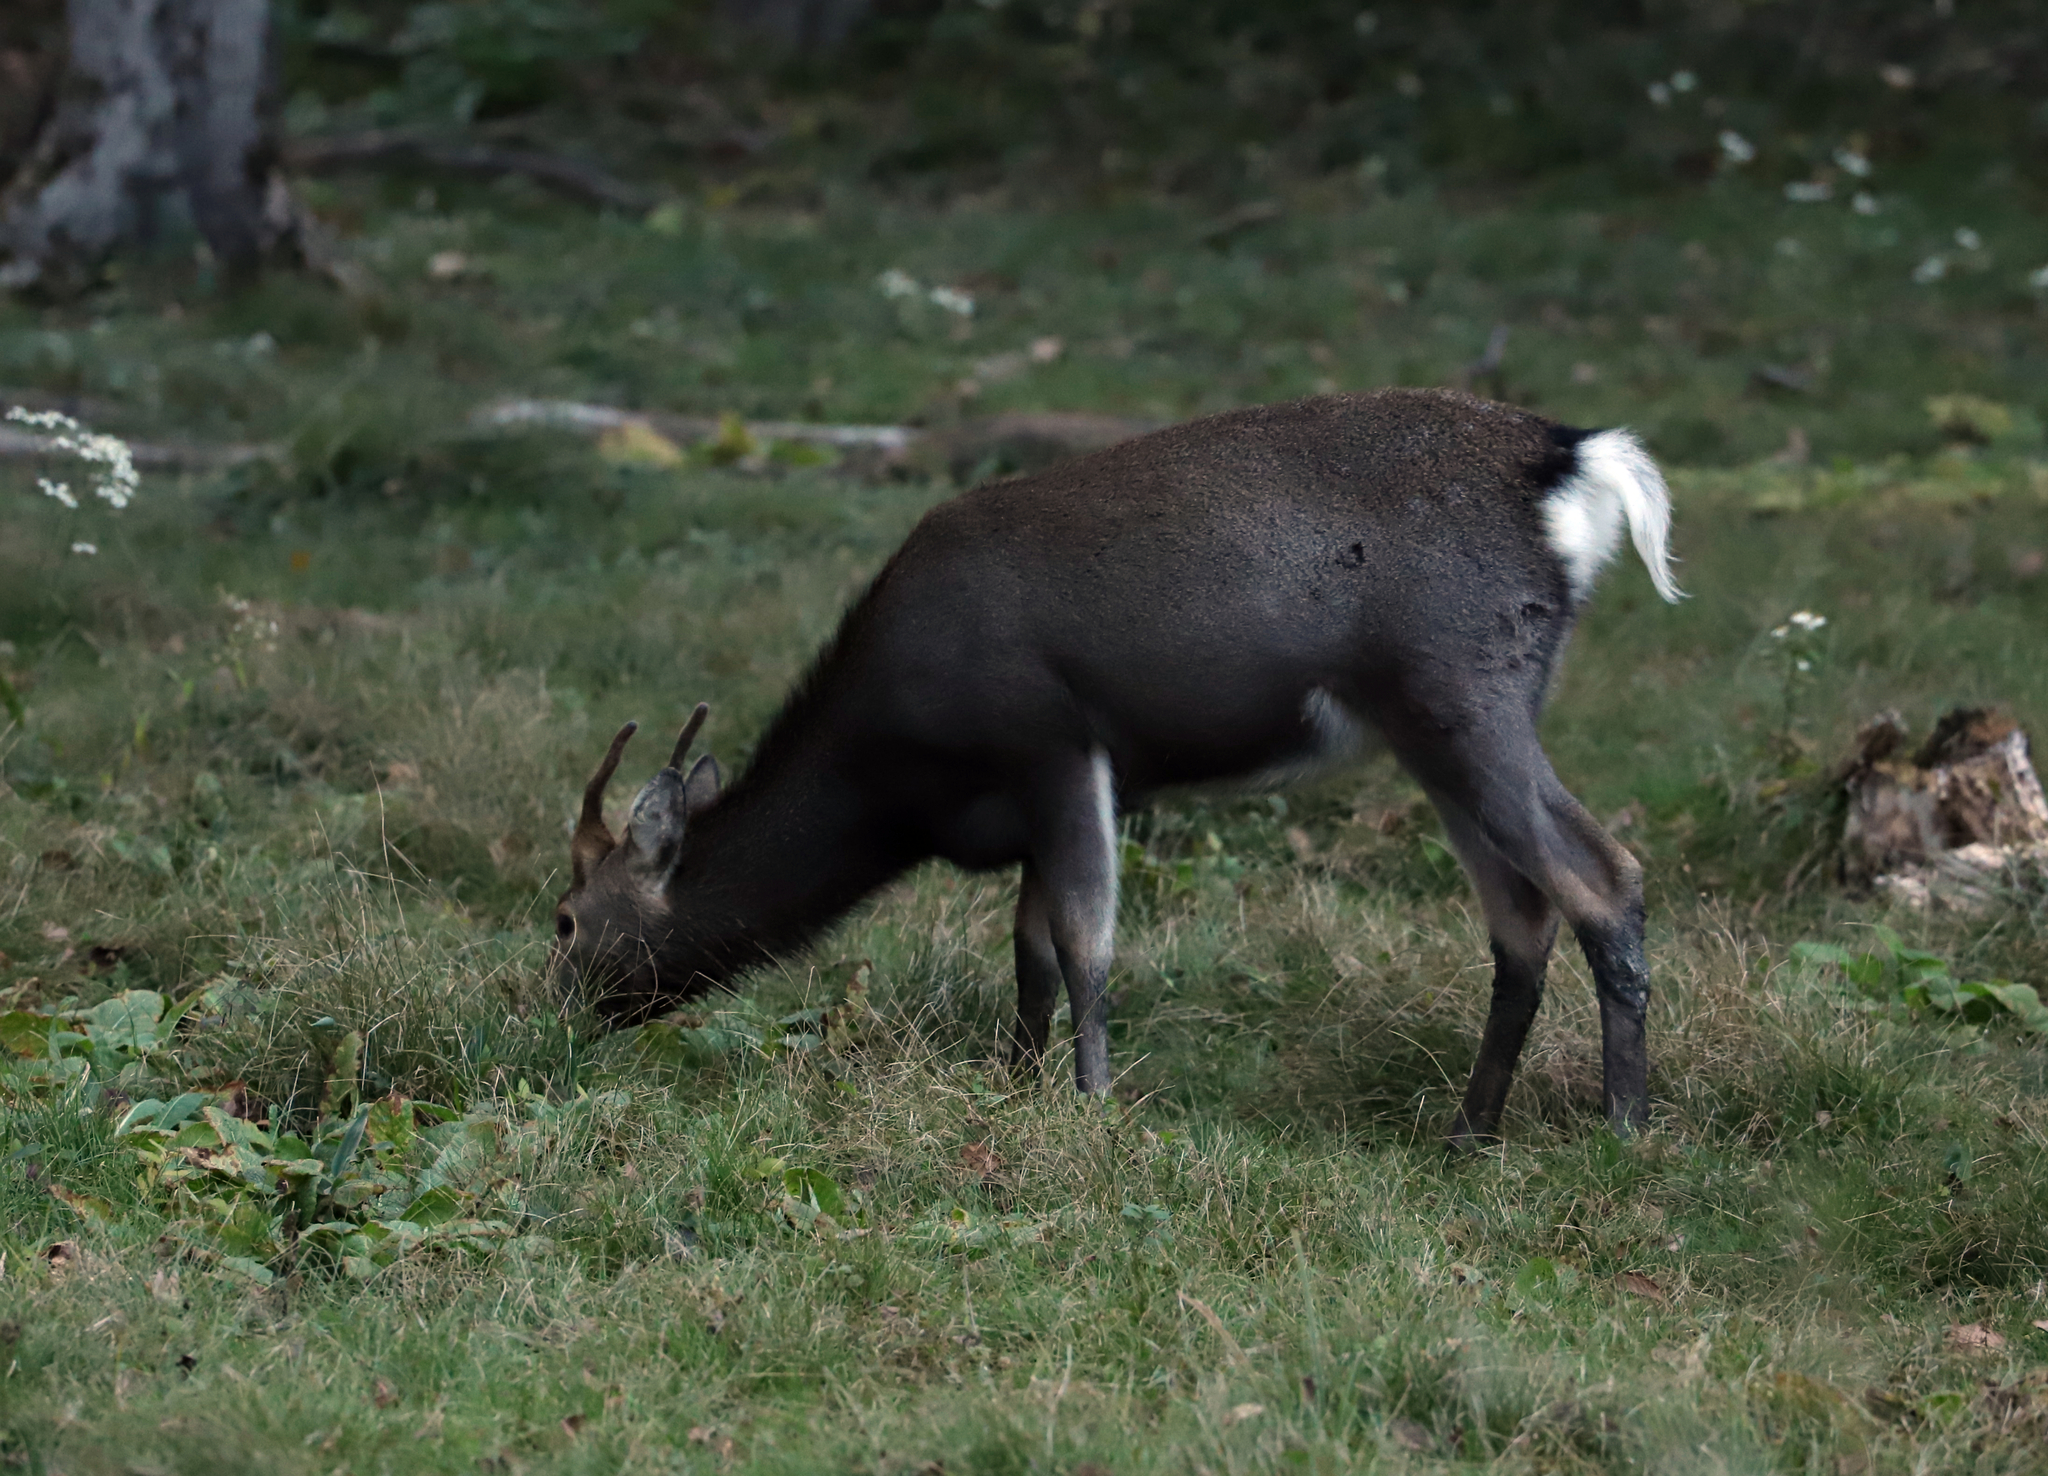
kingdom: Animalia
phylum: Chordata
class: Mammalia
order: Artiodactyla
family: Cervidae
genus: Cervus
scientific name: Cervus nippon
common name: Sika deer
